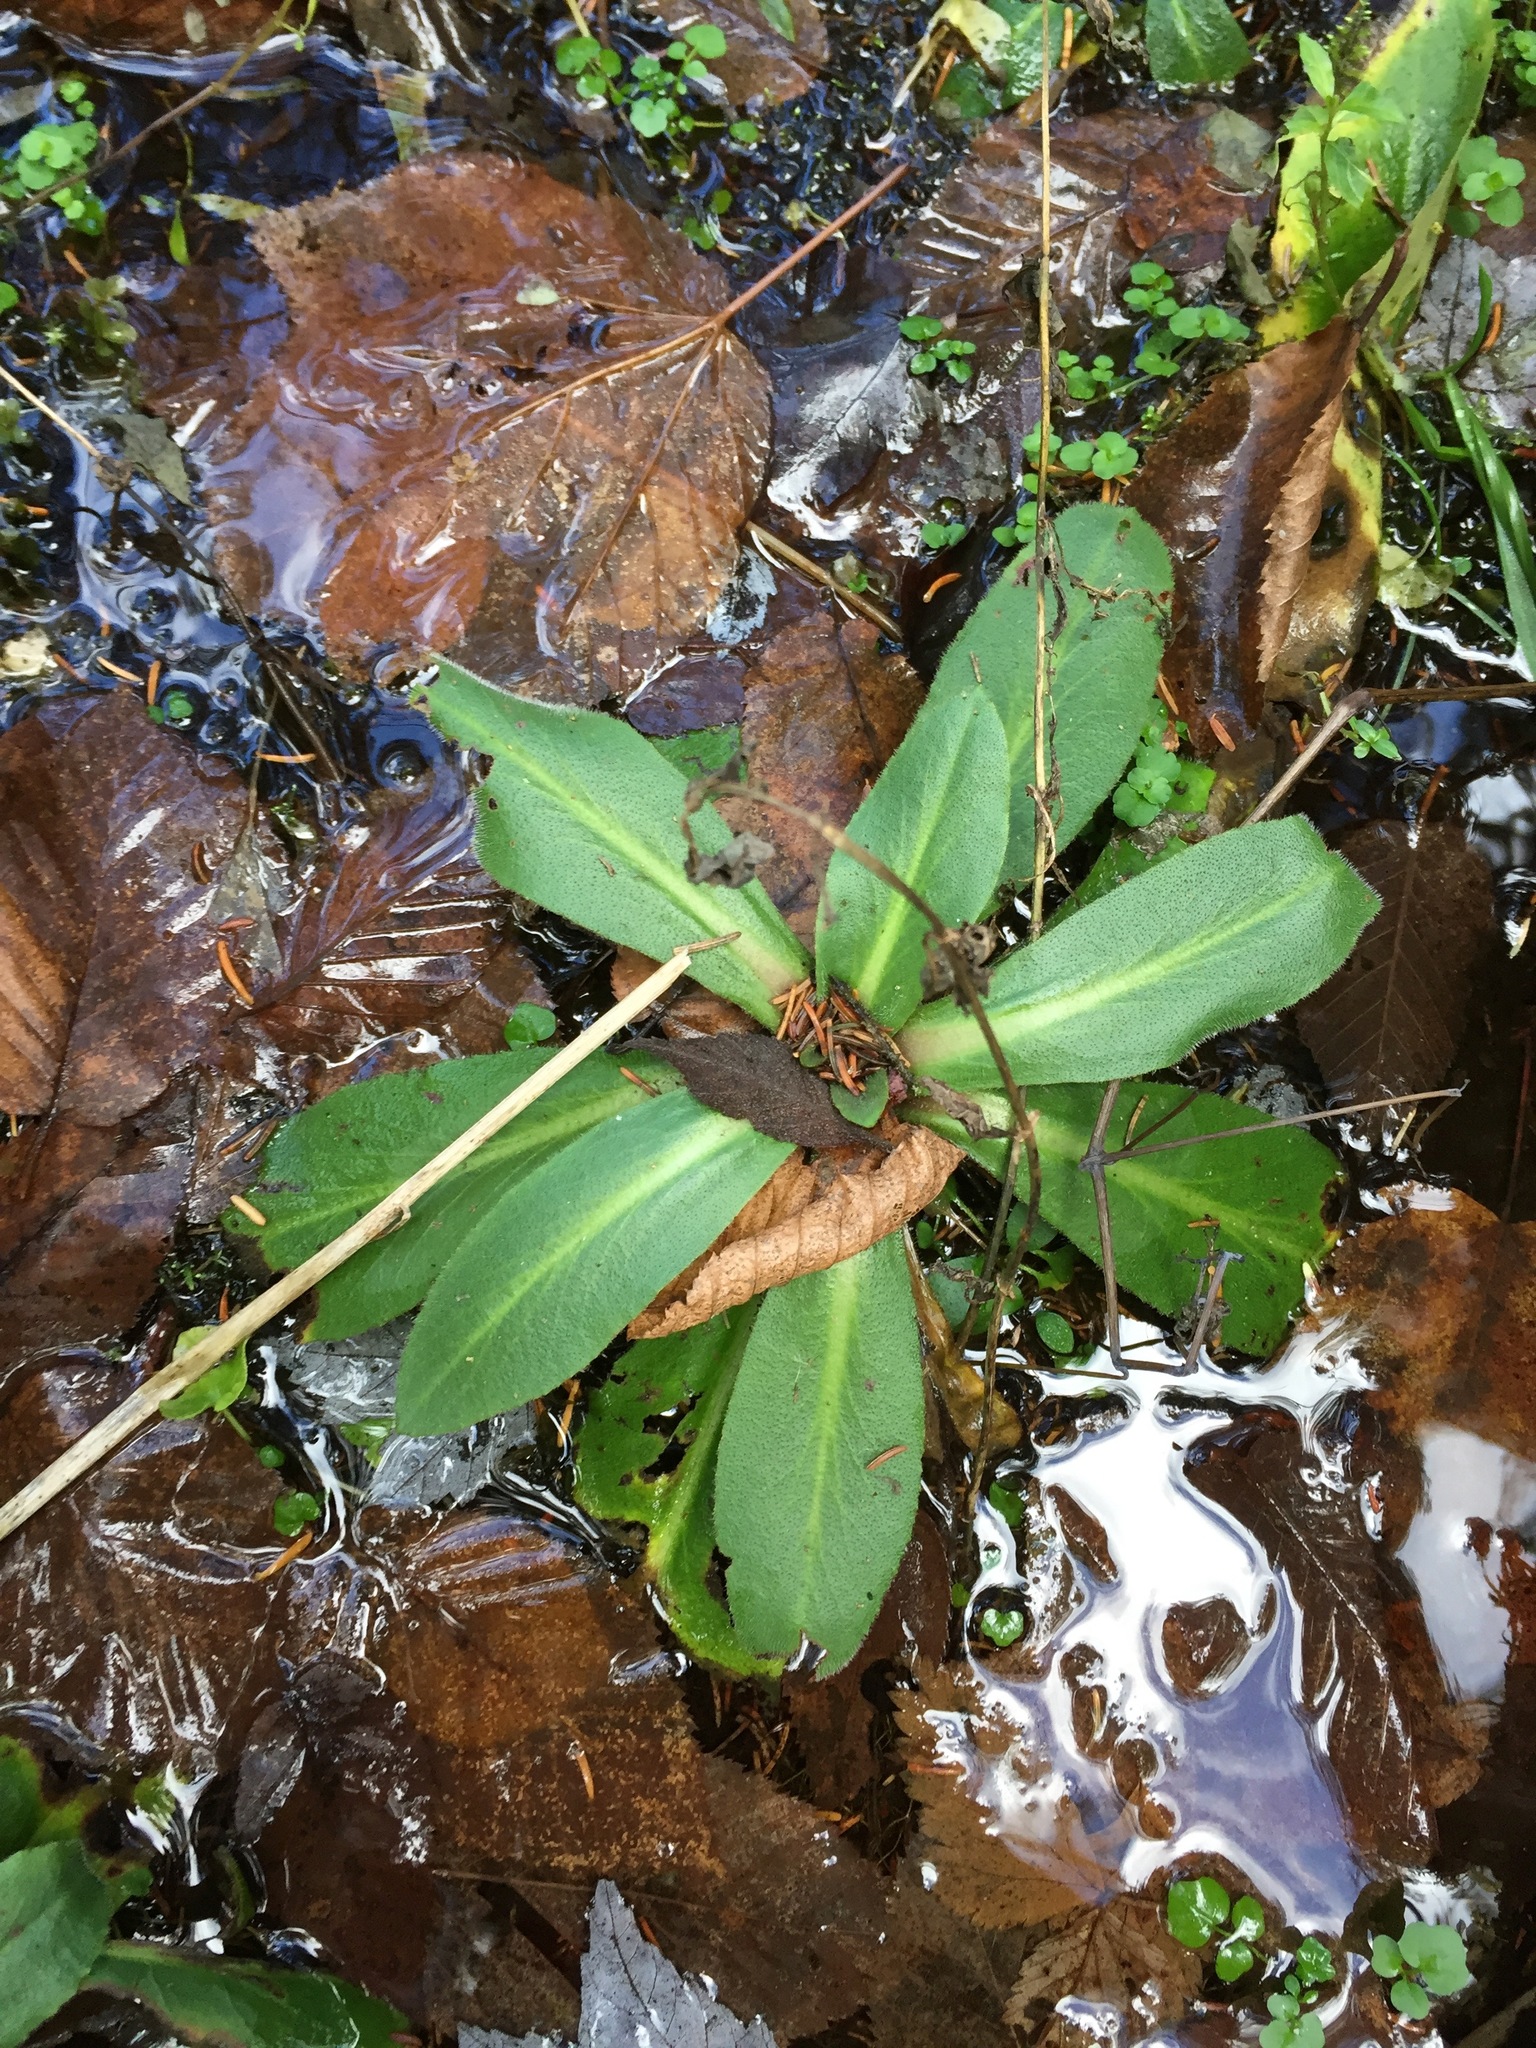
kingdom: Plantae
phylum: Tracheophyta
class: Magnoliopsida
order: Saxifragales
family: Saxifragaceae
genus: Micranthes
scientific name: Micranthes pensylvanica
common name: Marsh saxifrage
